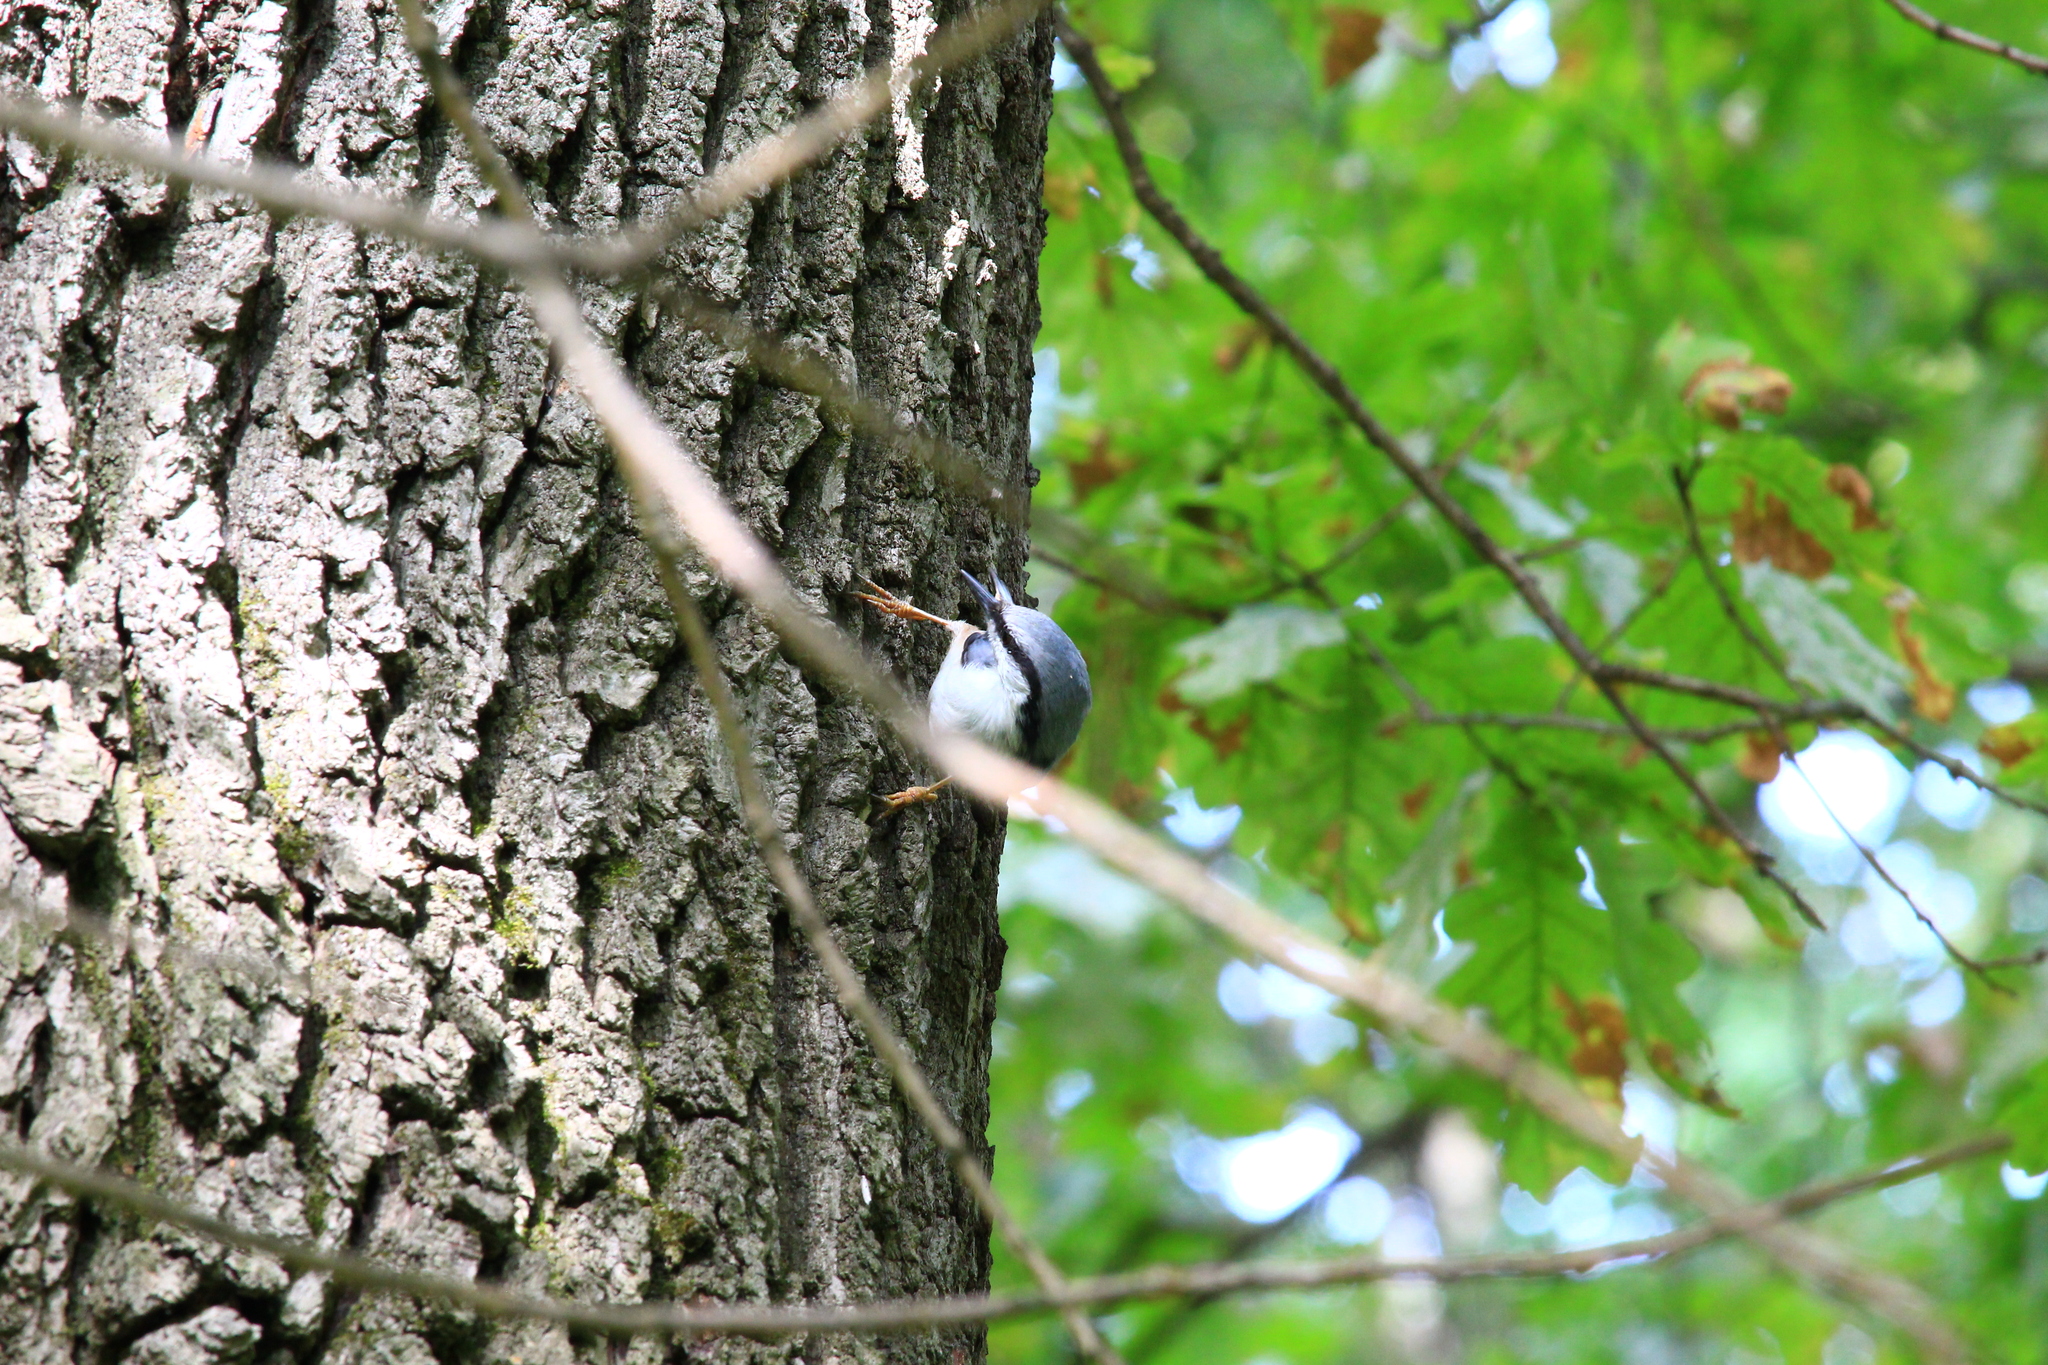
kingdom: Animalia
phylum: Chordata
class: Aves
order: Passeriformes
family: Sittidae
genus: Sitta
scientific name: Sitta europaea
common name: Eurasian nuthatch
